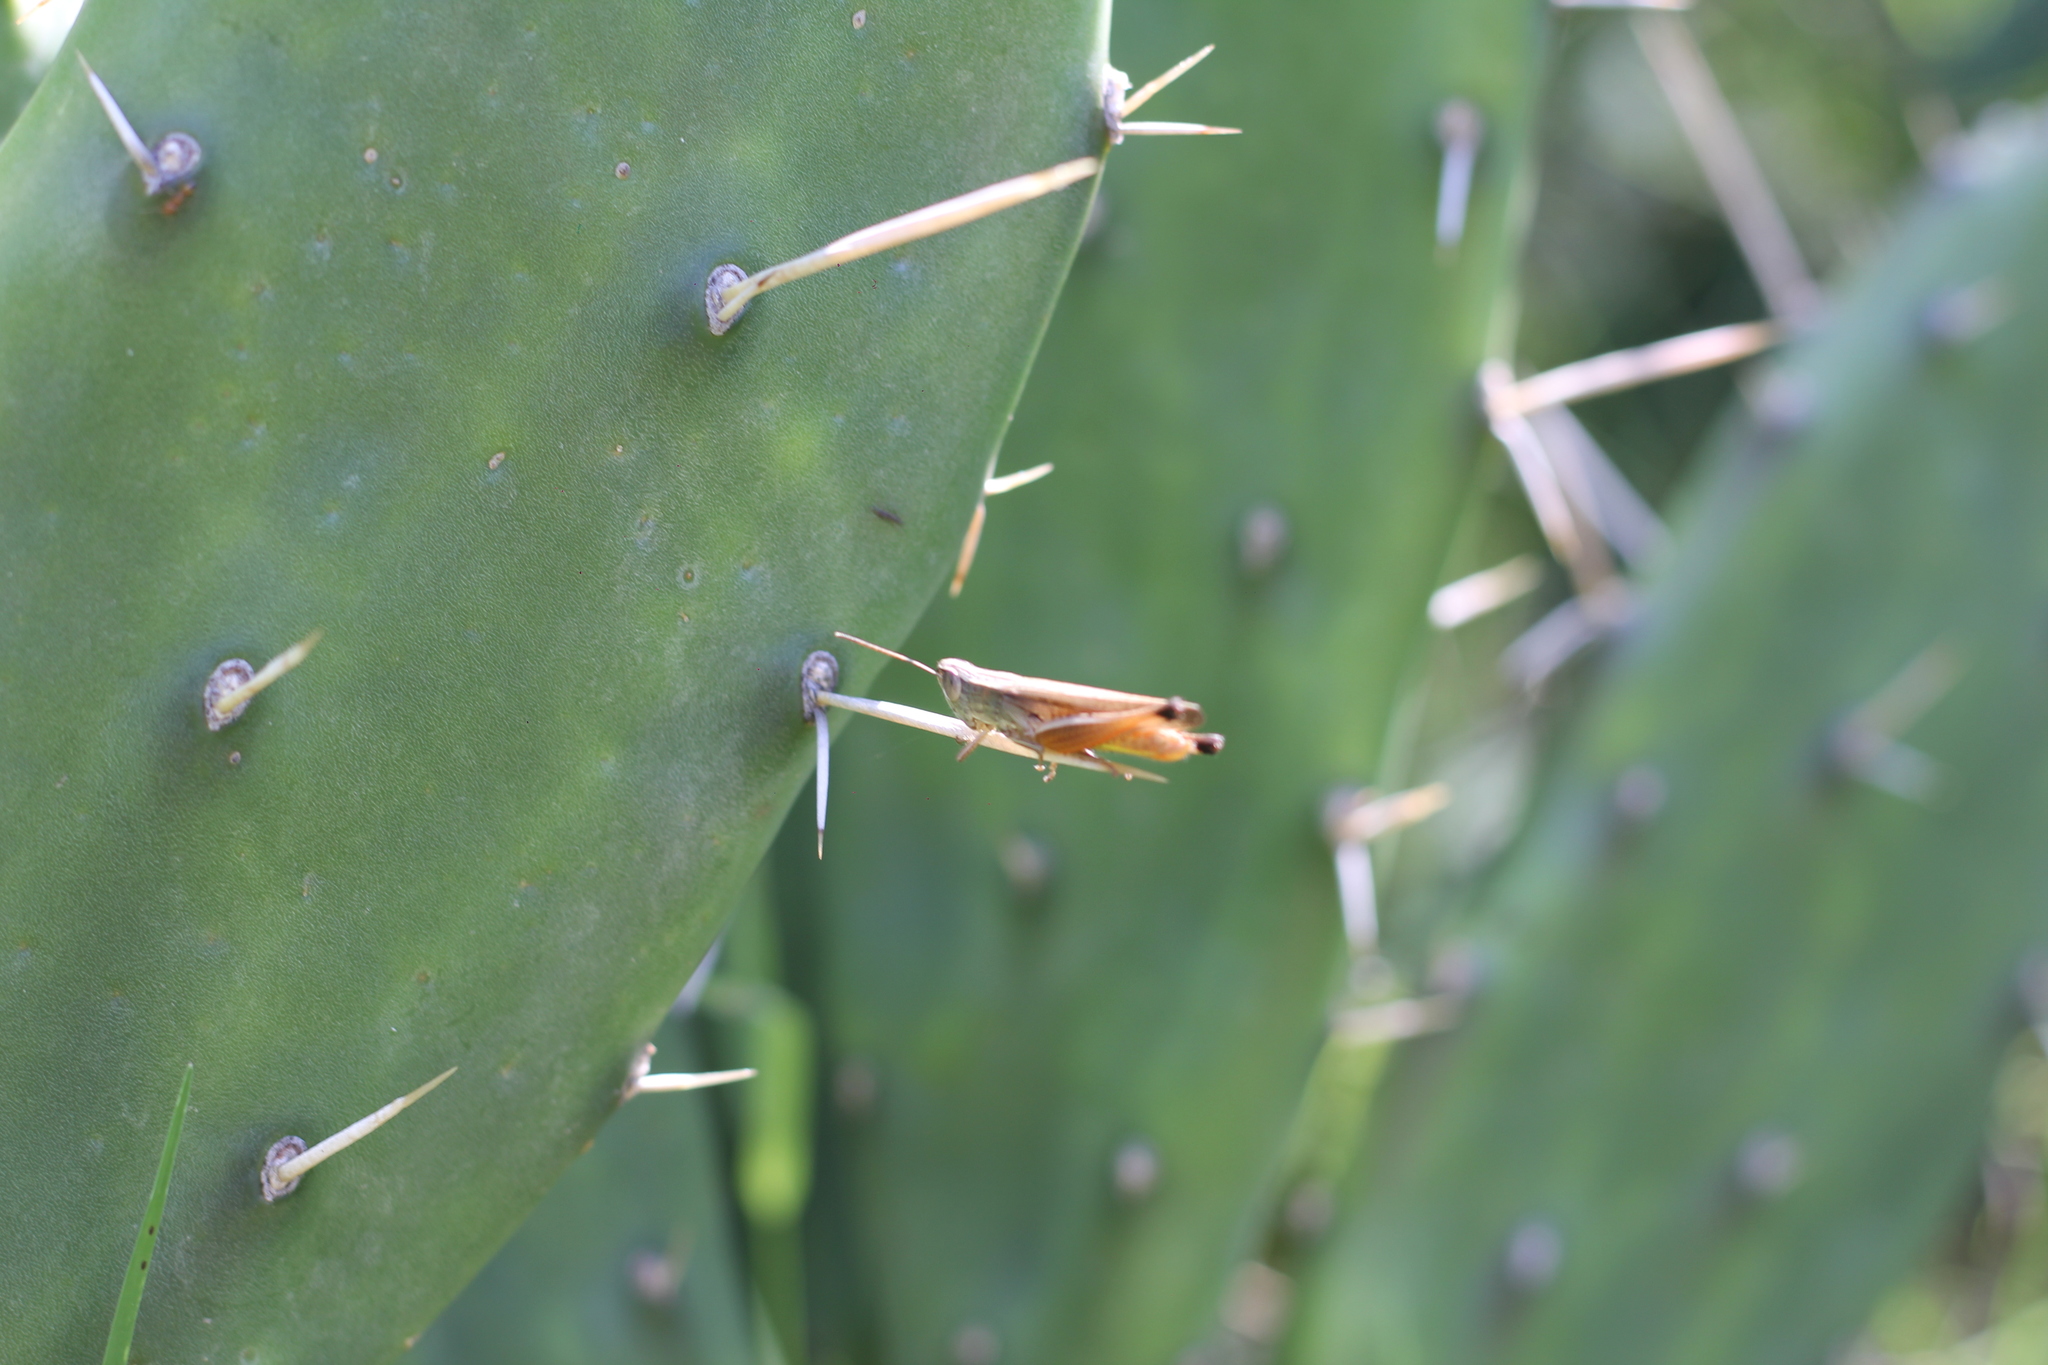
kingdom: Animalia
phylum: Arthropoda
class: Insecta
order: Orthoptera
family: Acrididae
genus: Amblytropidia
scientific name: Amblytropidia australis
